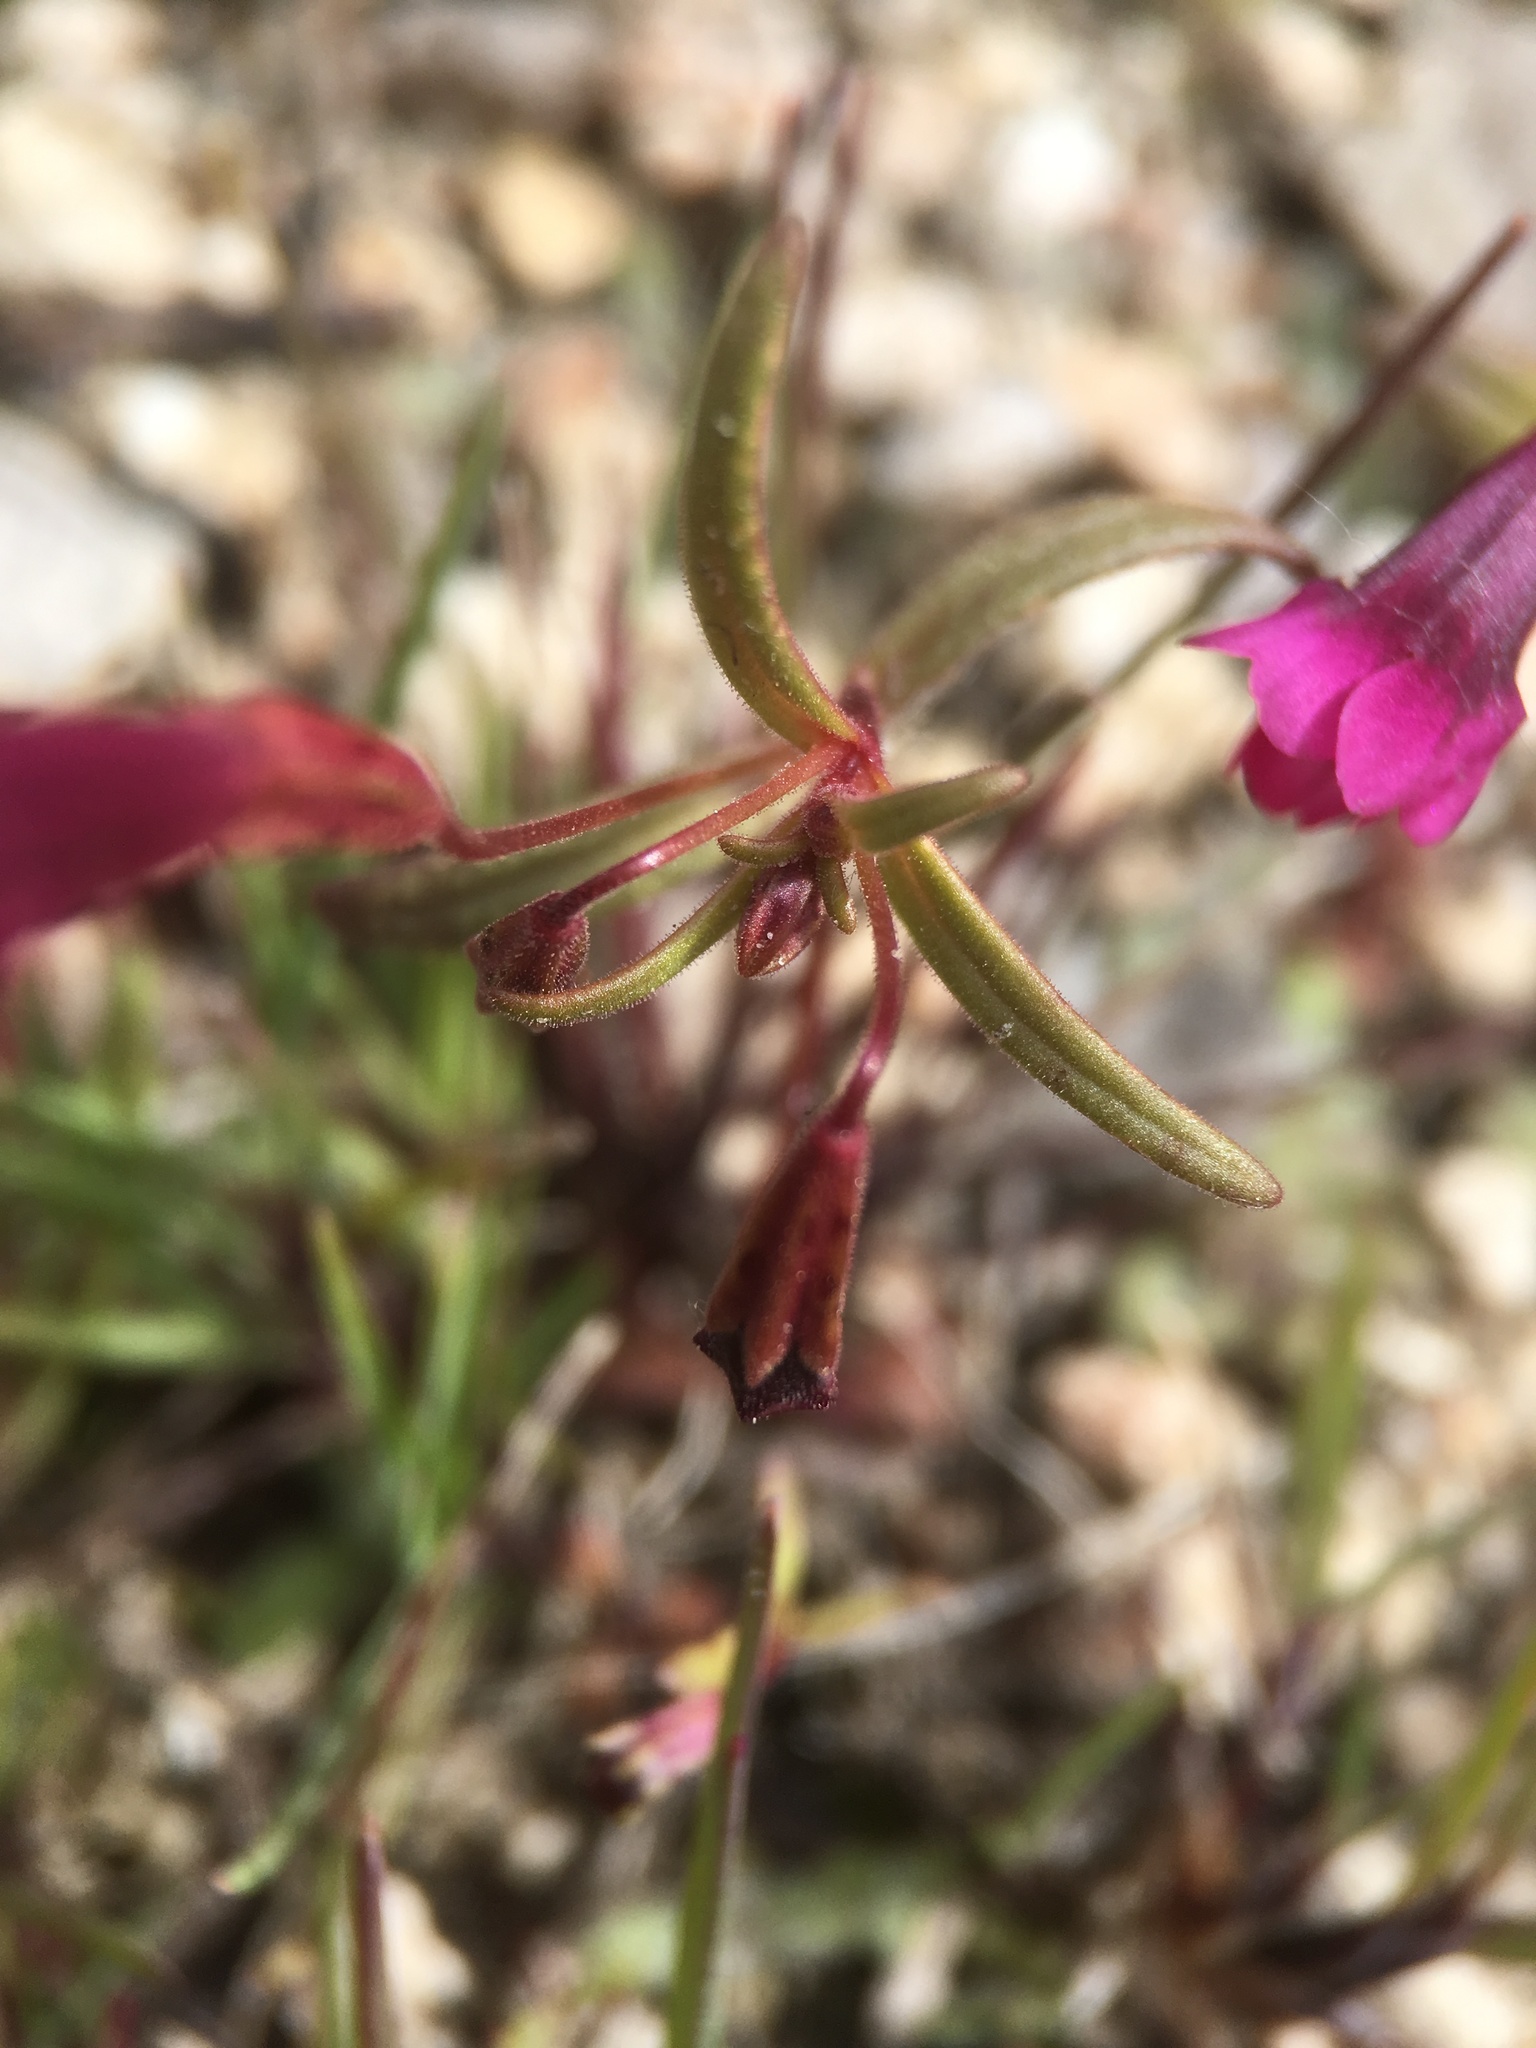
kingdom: Plantae
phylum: Tracheophyta
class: Magnoliopsida
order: Lamiales
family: Phrymaceae
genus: Erythranthe
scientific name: Erythranthe palmeri
